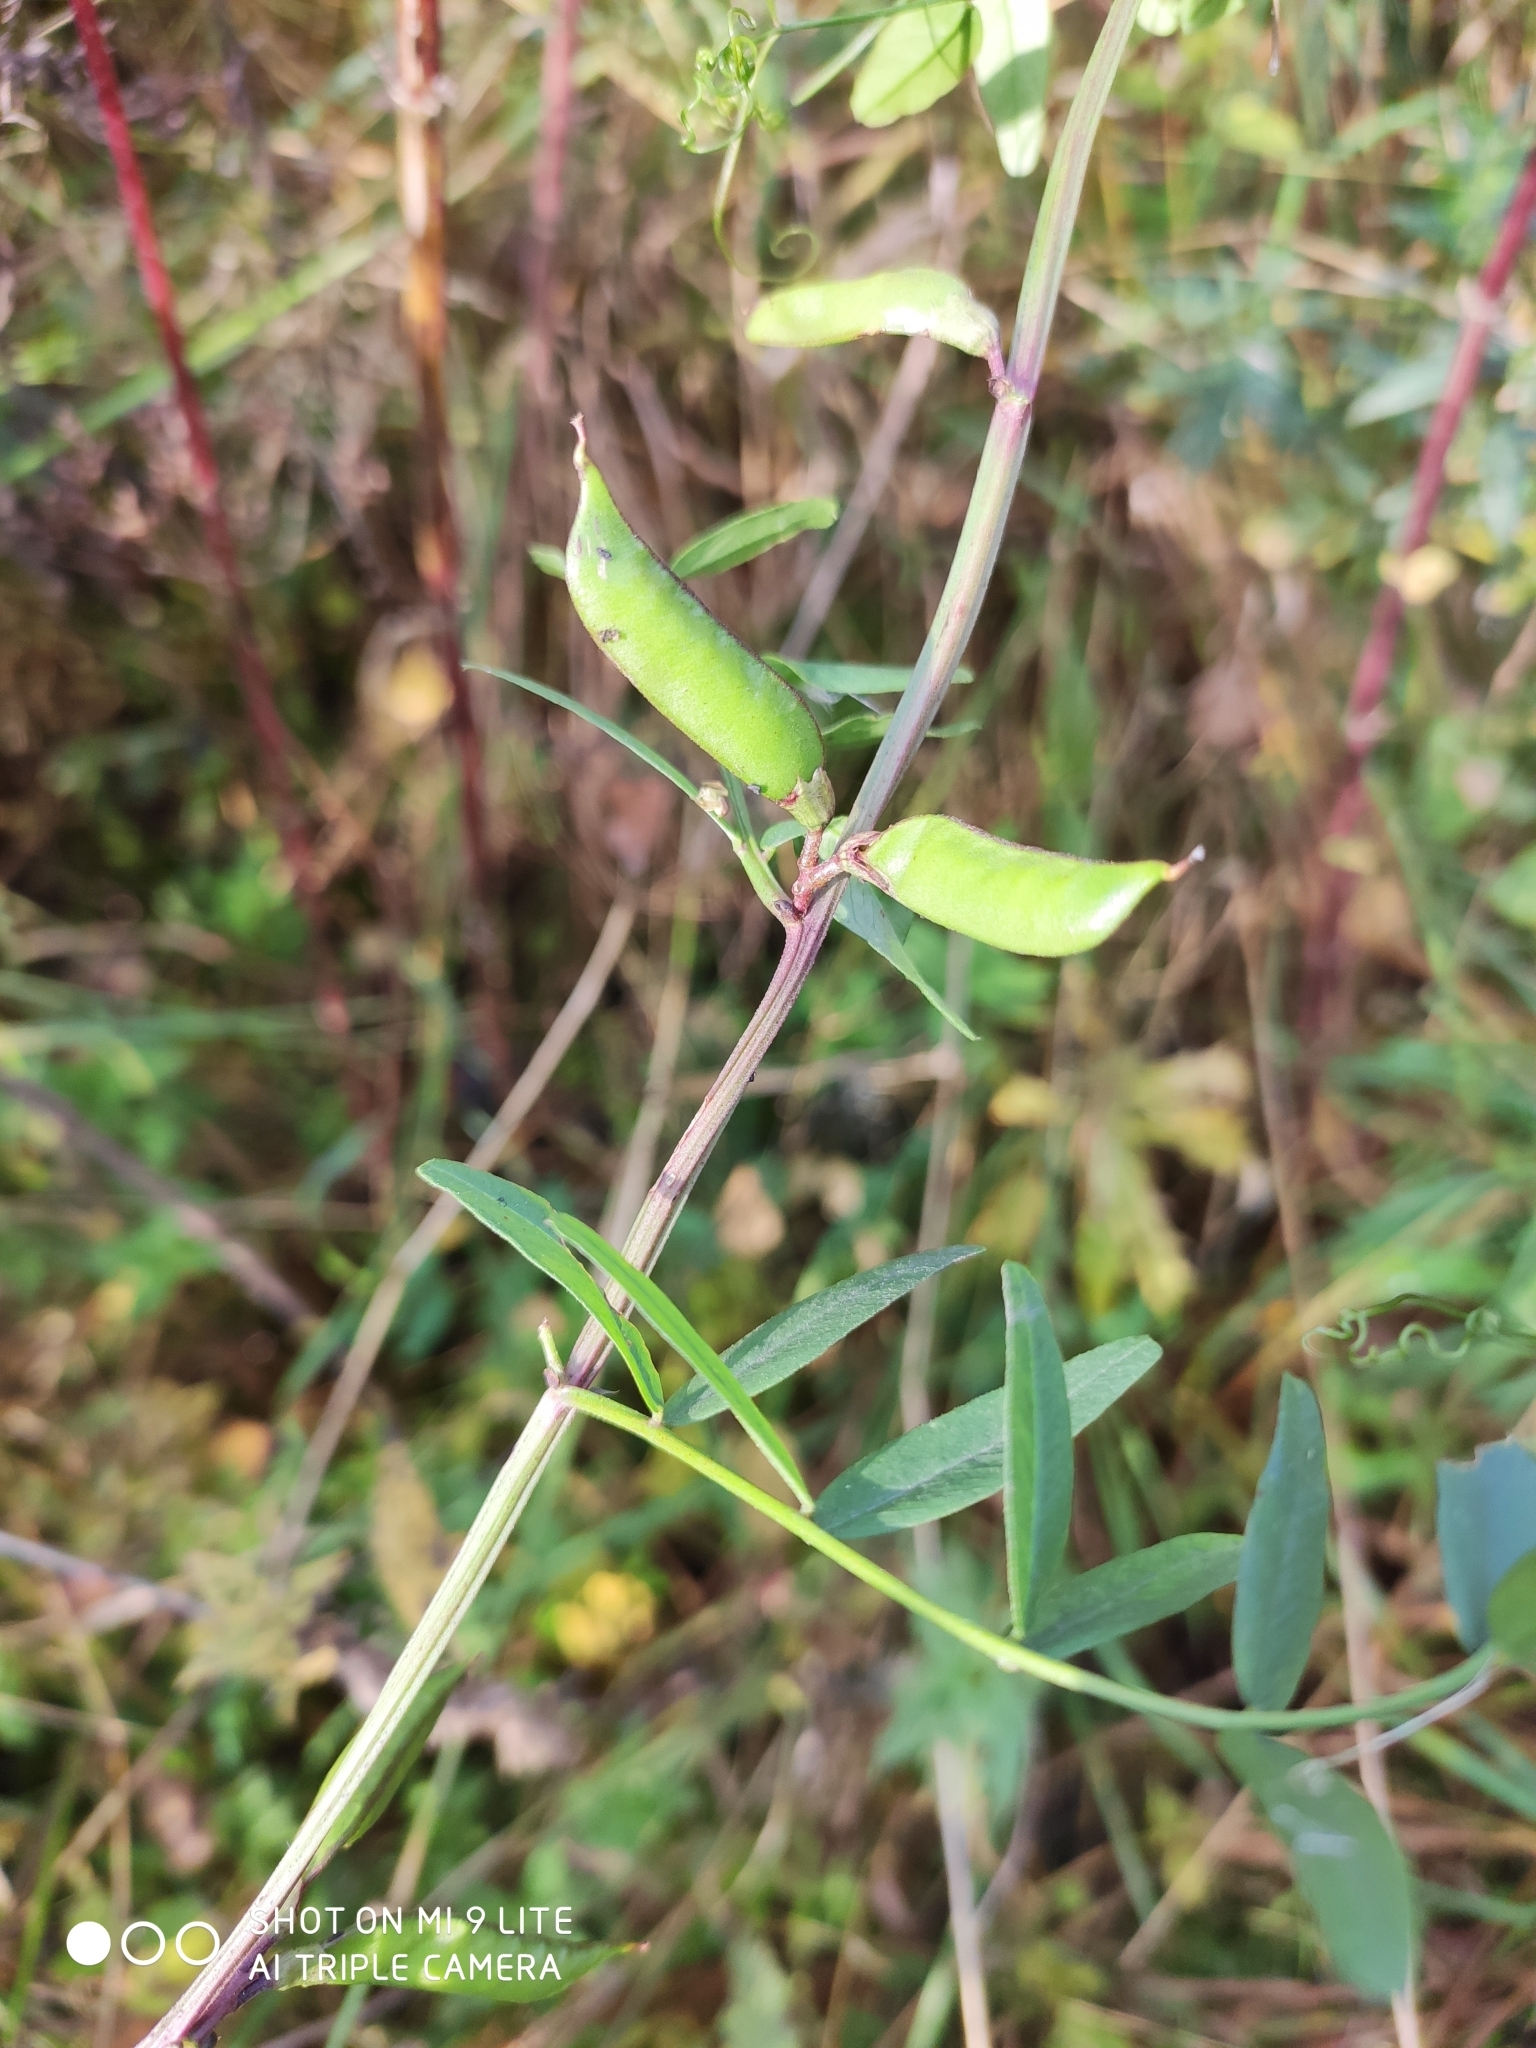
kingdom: Plantae
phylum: Tracheophyta
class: Magnoliopsida
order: Fabales
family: Fabaceae
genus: Vicia
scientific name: Vicia sepium
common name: Bush vetch
